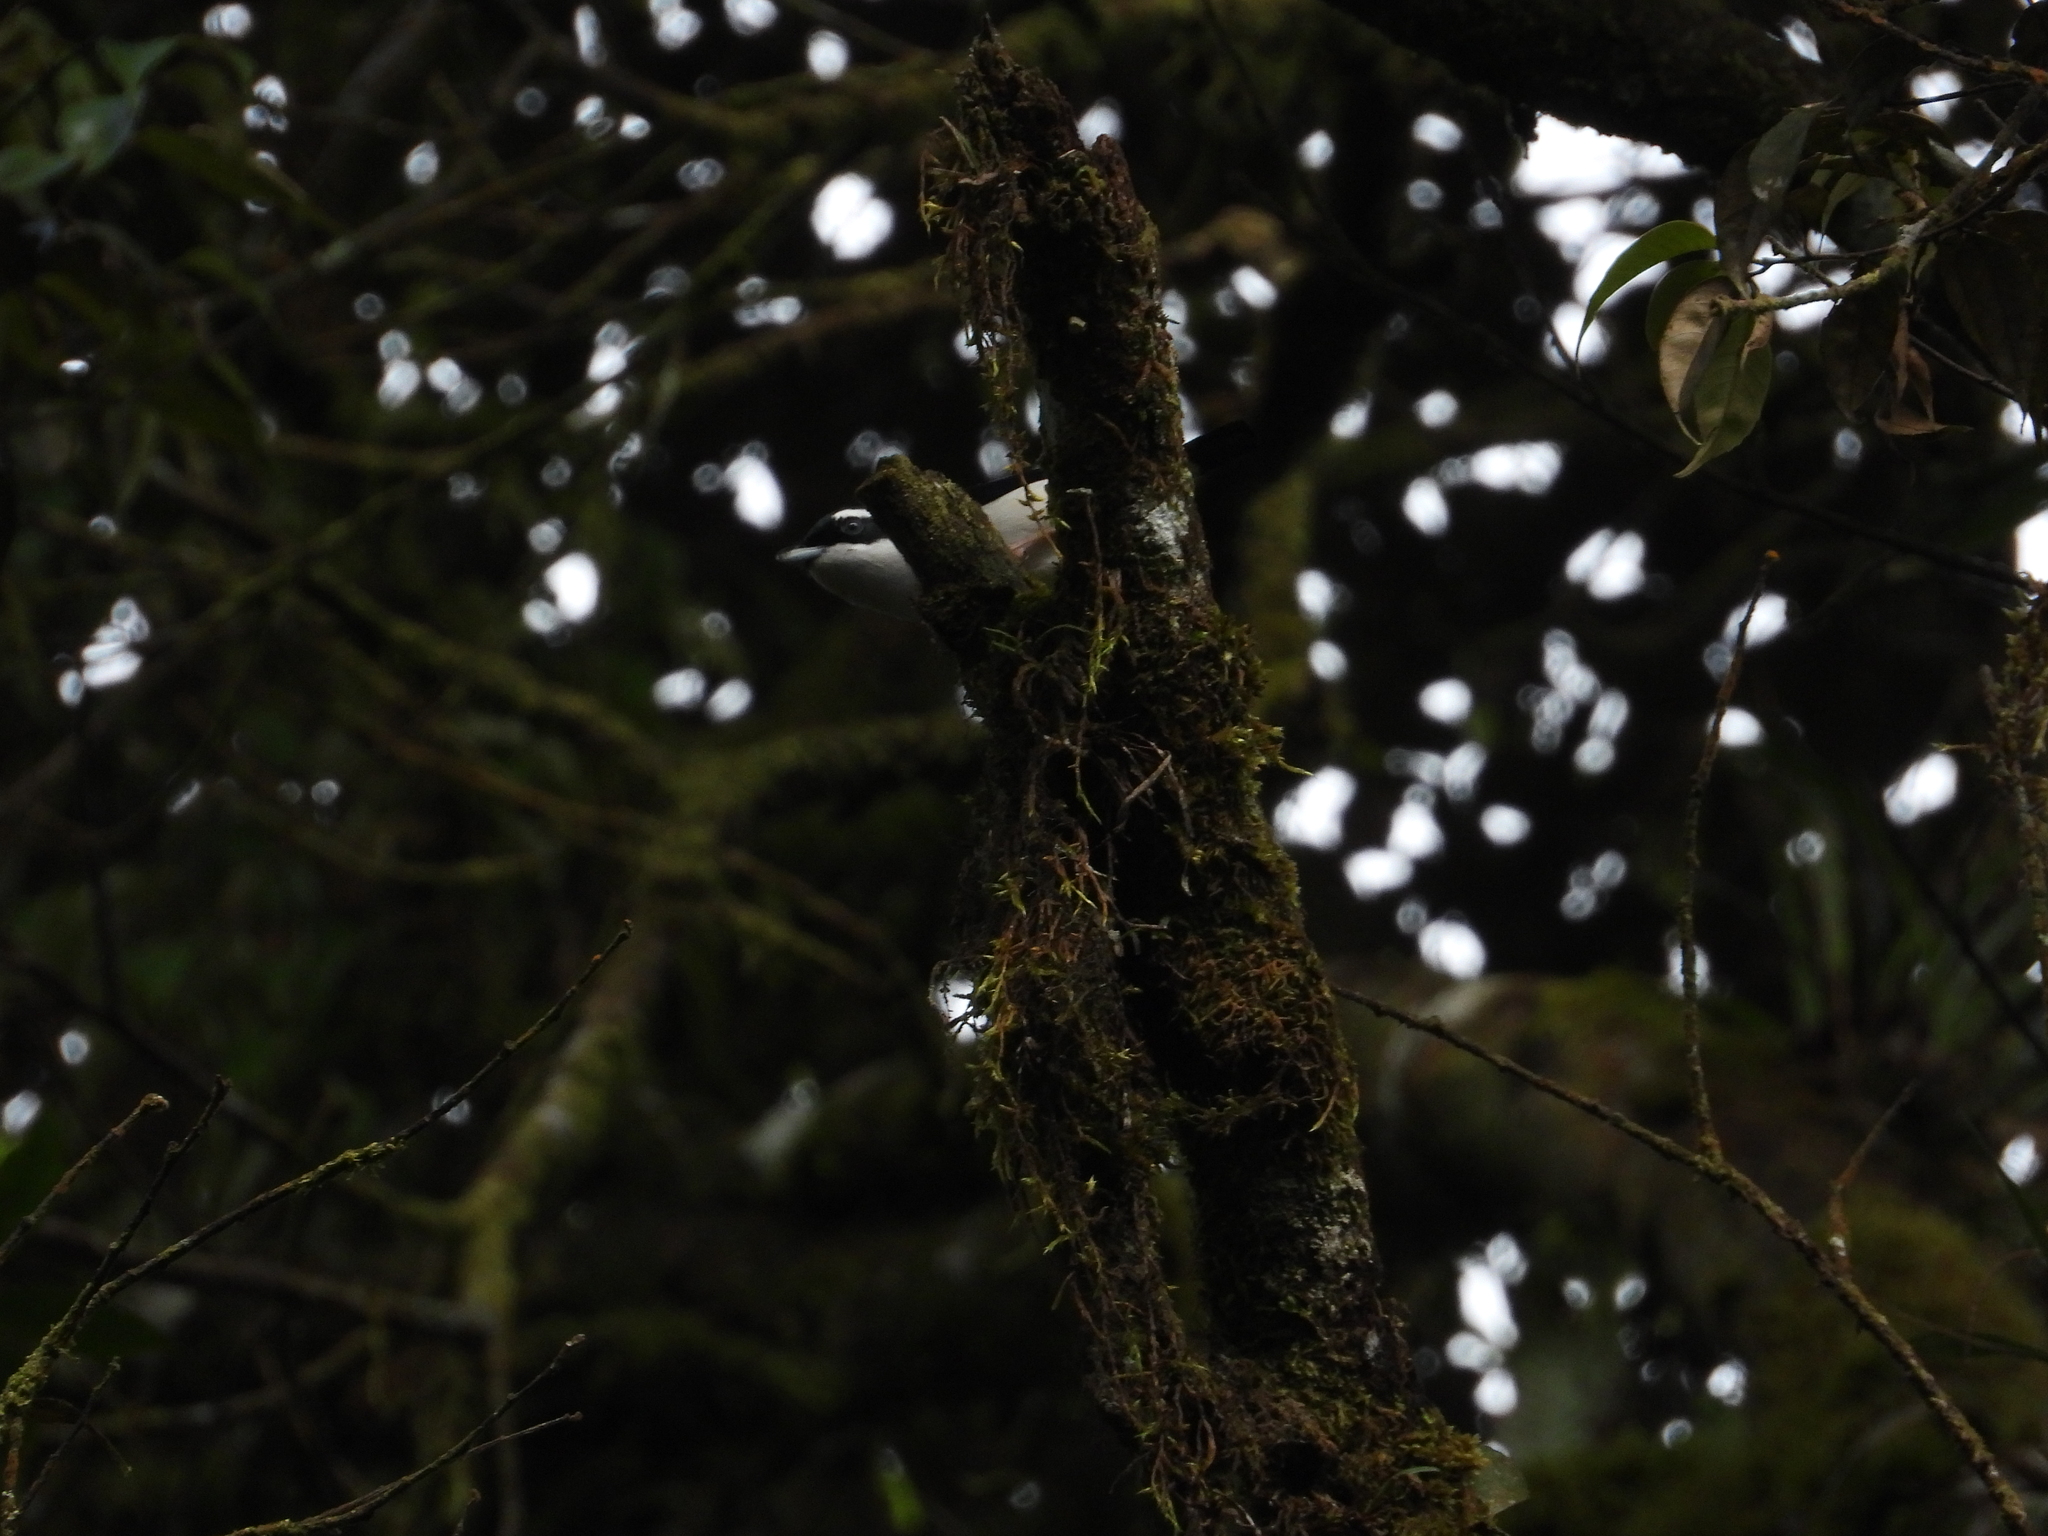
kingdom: Animalia
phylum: Chordata
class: Aves
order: Passeriformes
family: Vireonidae
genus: Pteruthius
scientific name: Pteruthius flaviscapis
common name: Pied shrike-babbler
